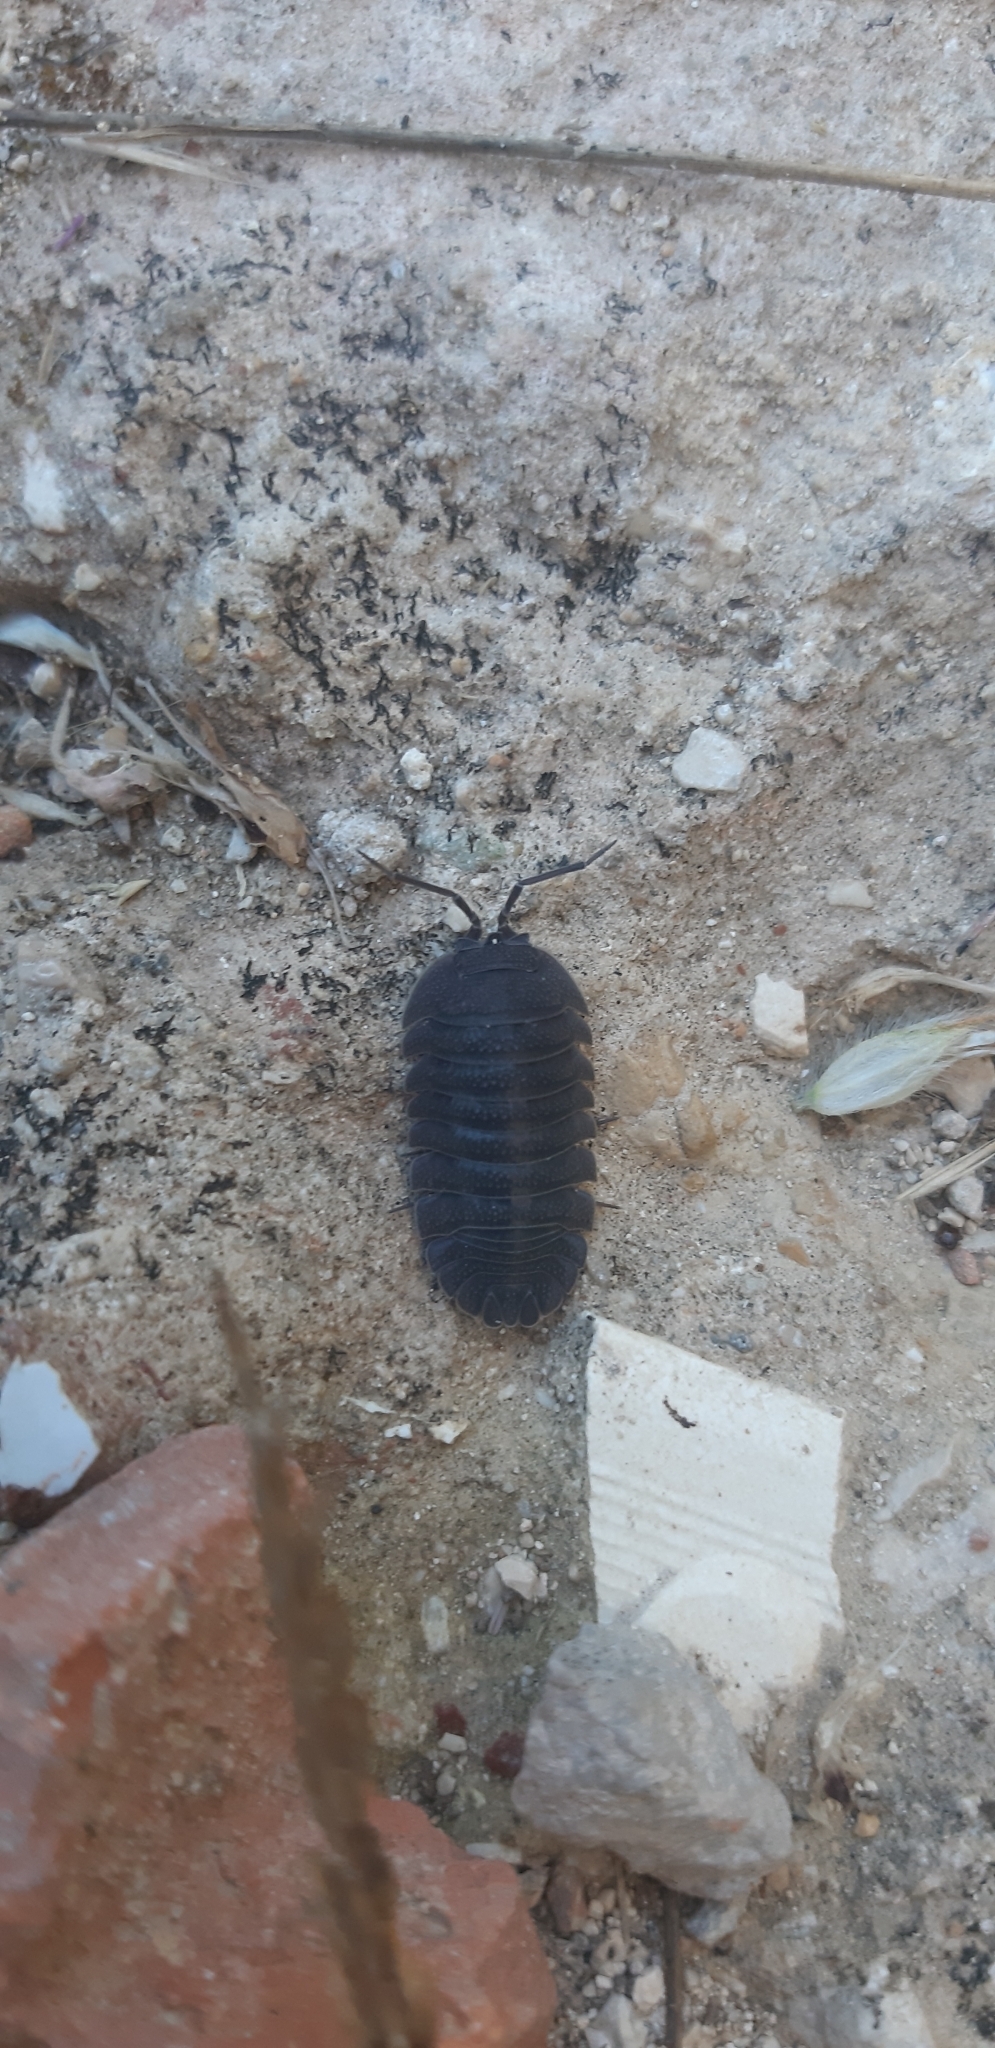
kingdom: Animalia
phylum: Arthropoda
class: Malacostraca
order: Isopoda
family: Armadillidiidae
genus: Armadillidium
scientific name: Armadillidium peraccae
